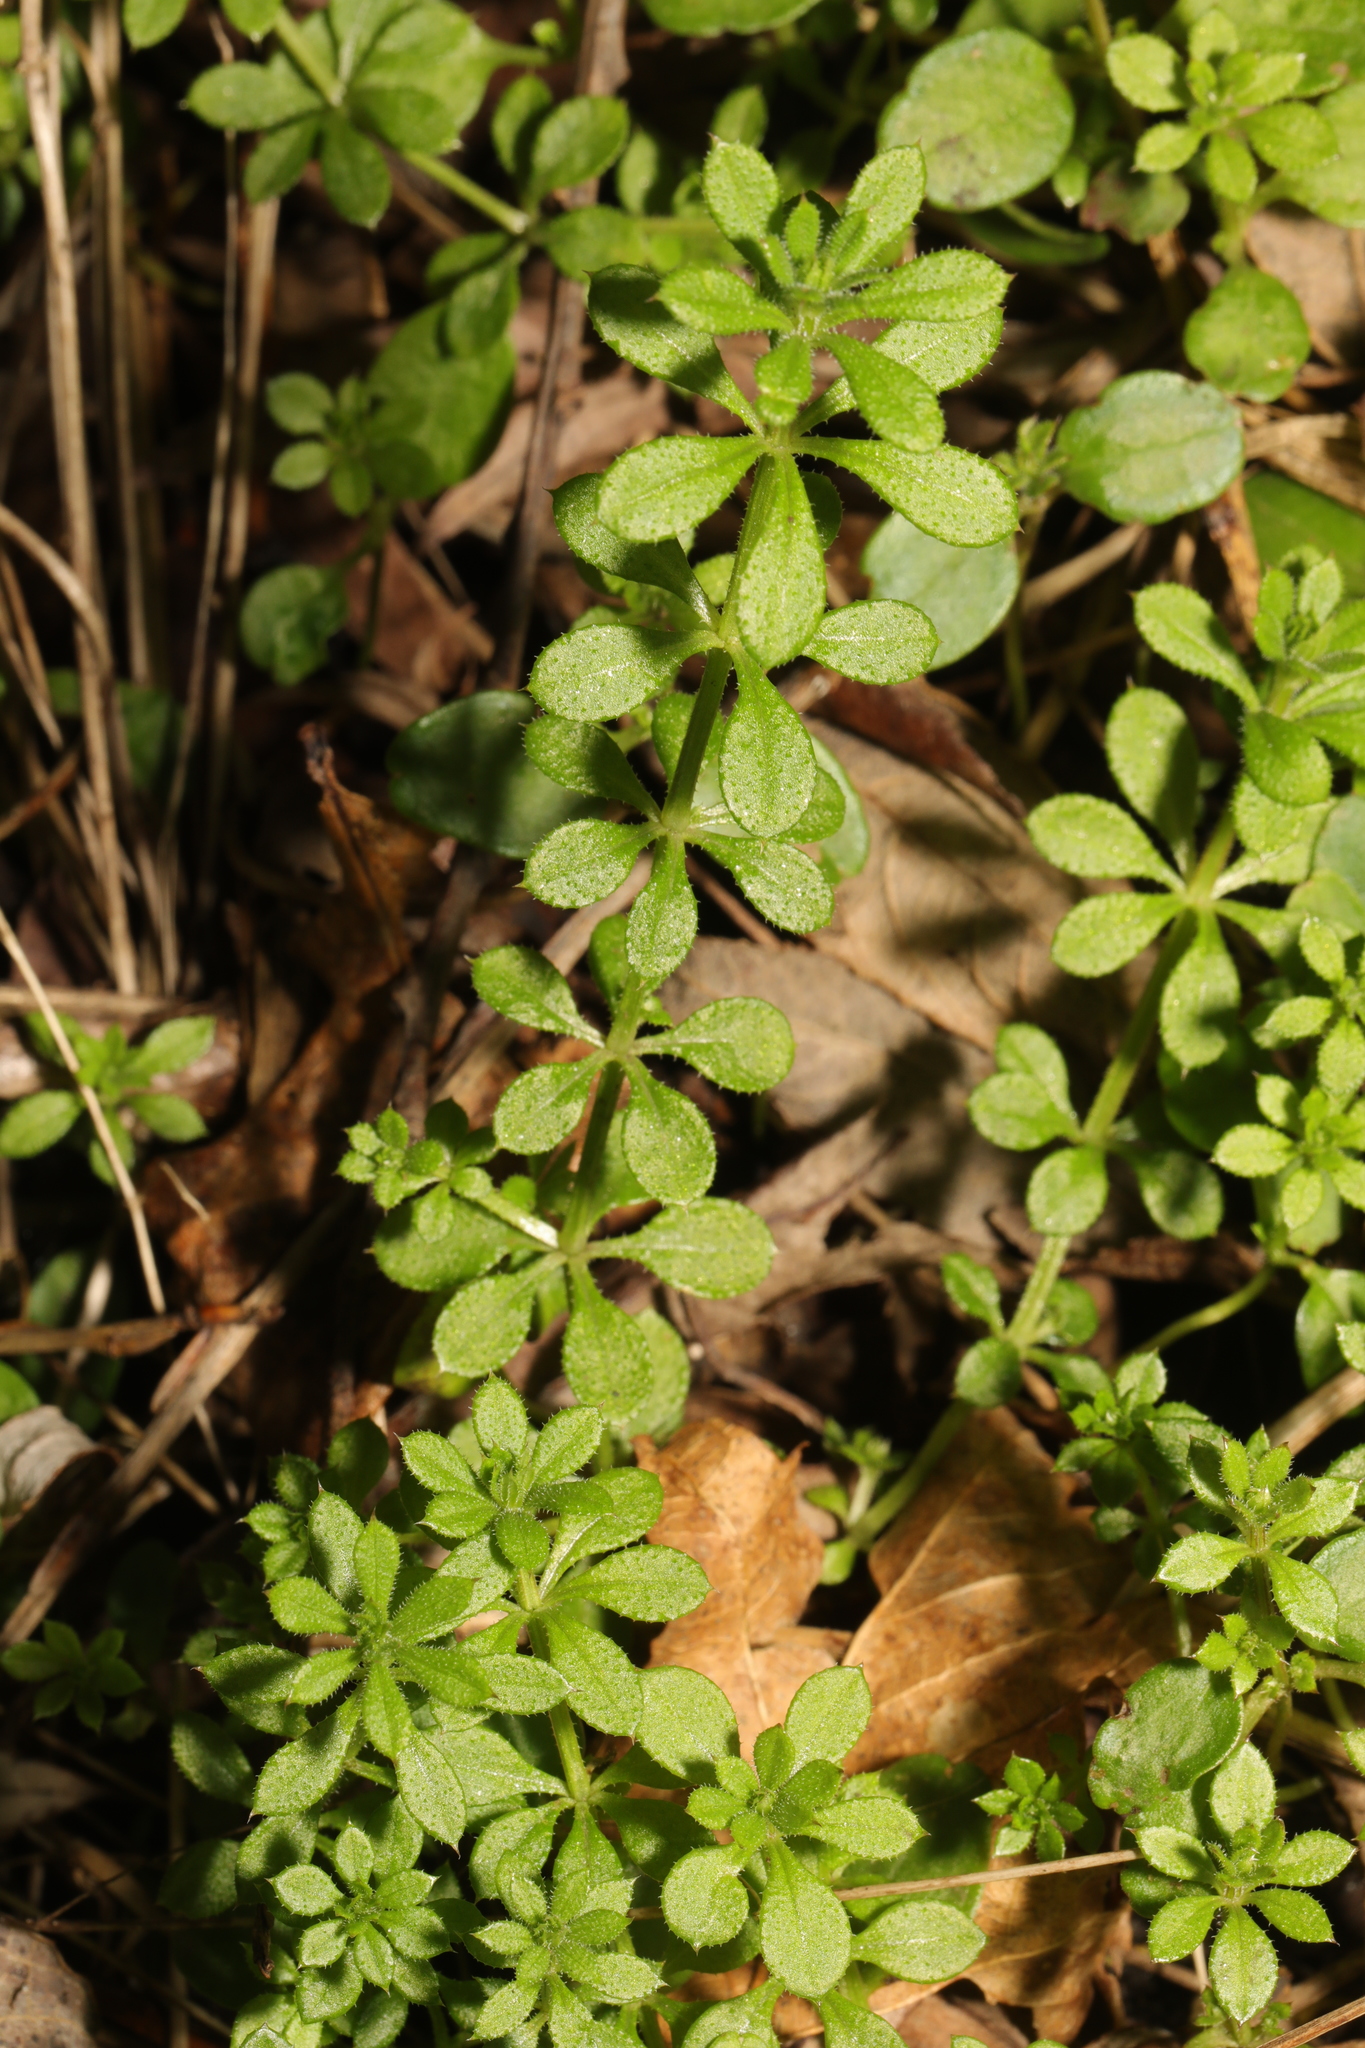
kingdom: Plantae
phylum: Tracheophyta
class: Magnoliopsida
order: Gentianales
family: Rubiaceae
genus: Galium
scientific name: Galium aparine
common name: Cleavers
